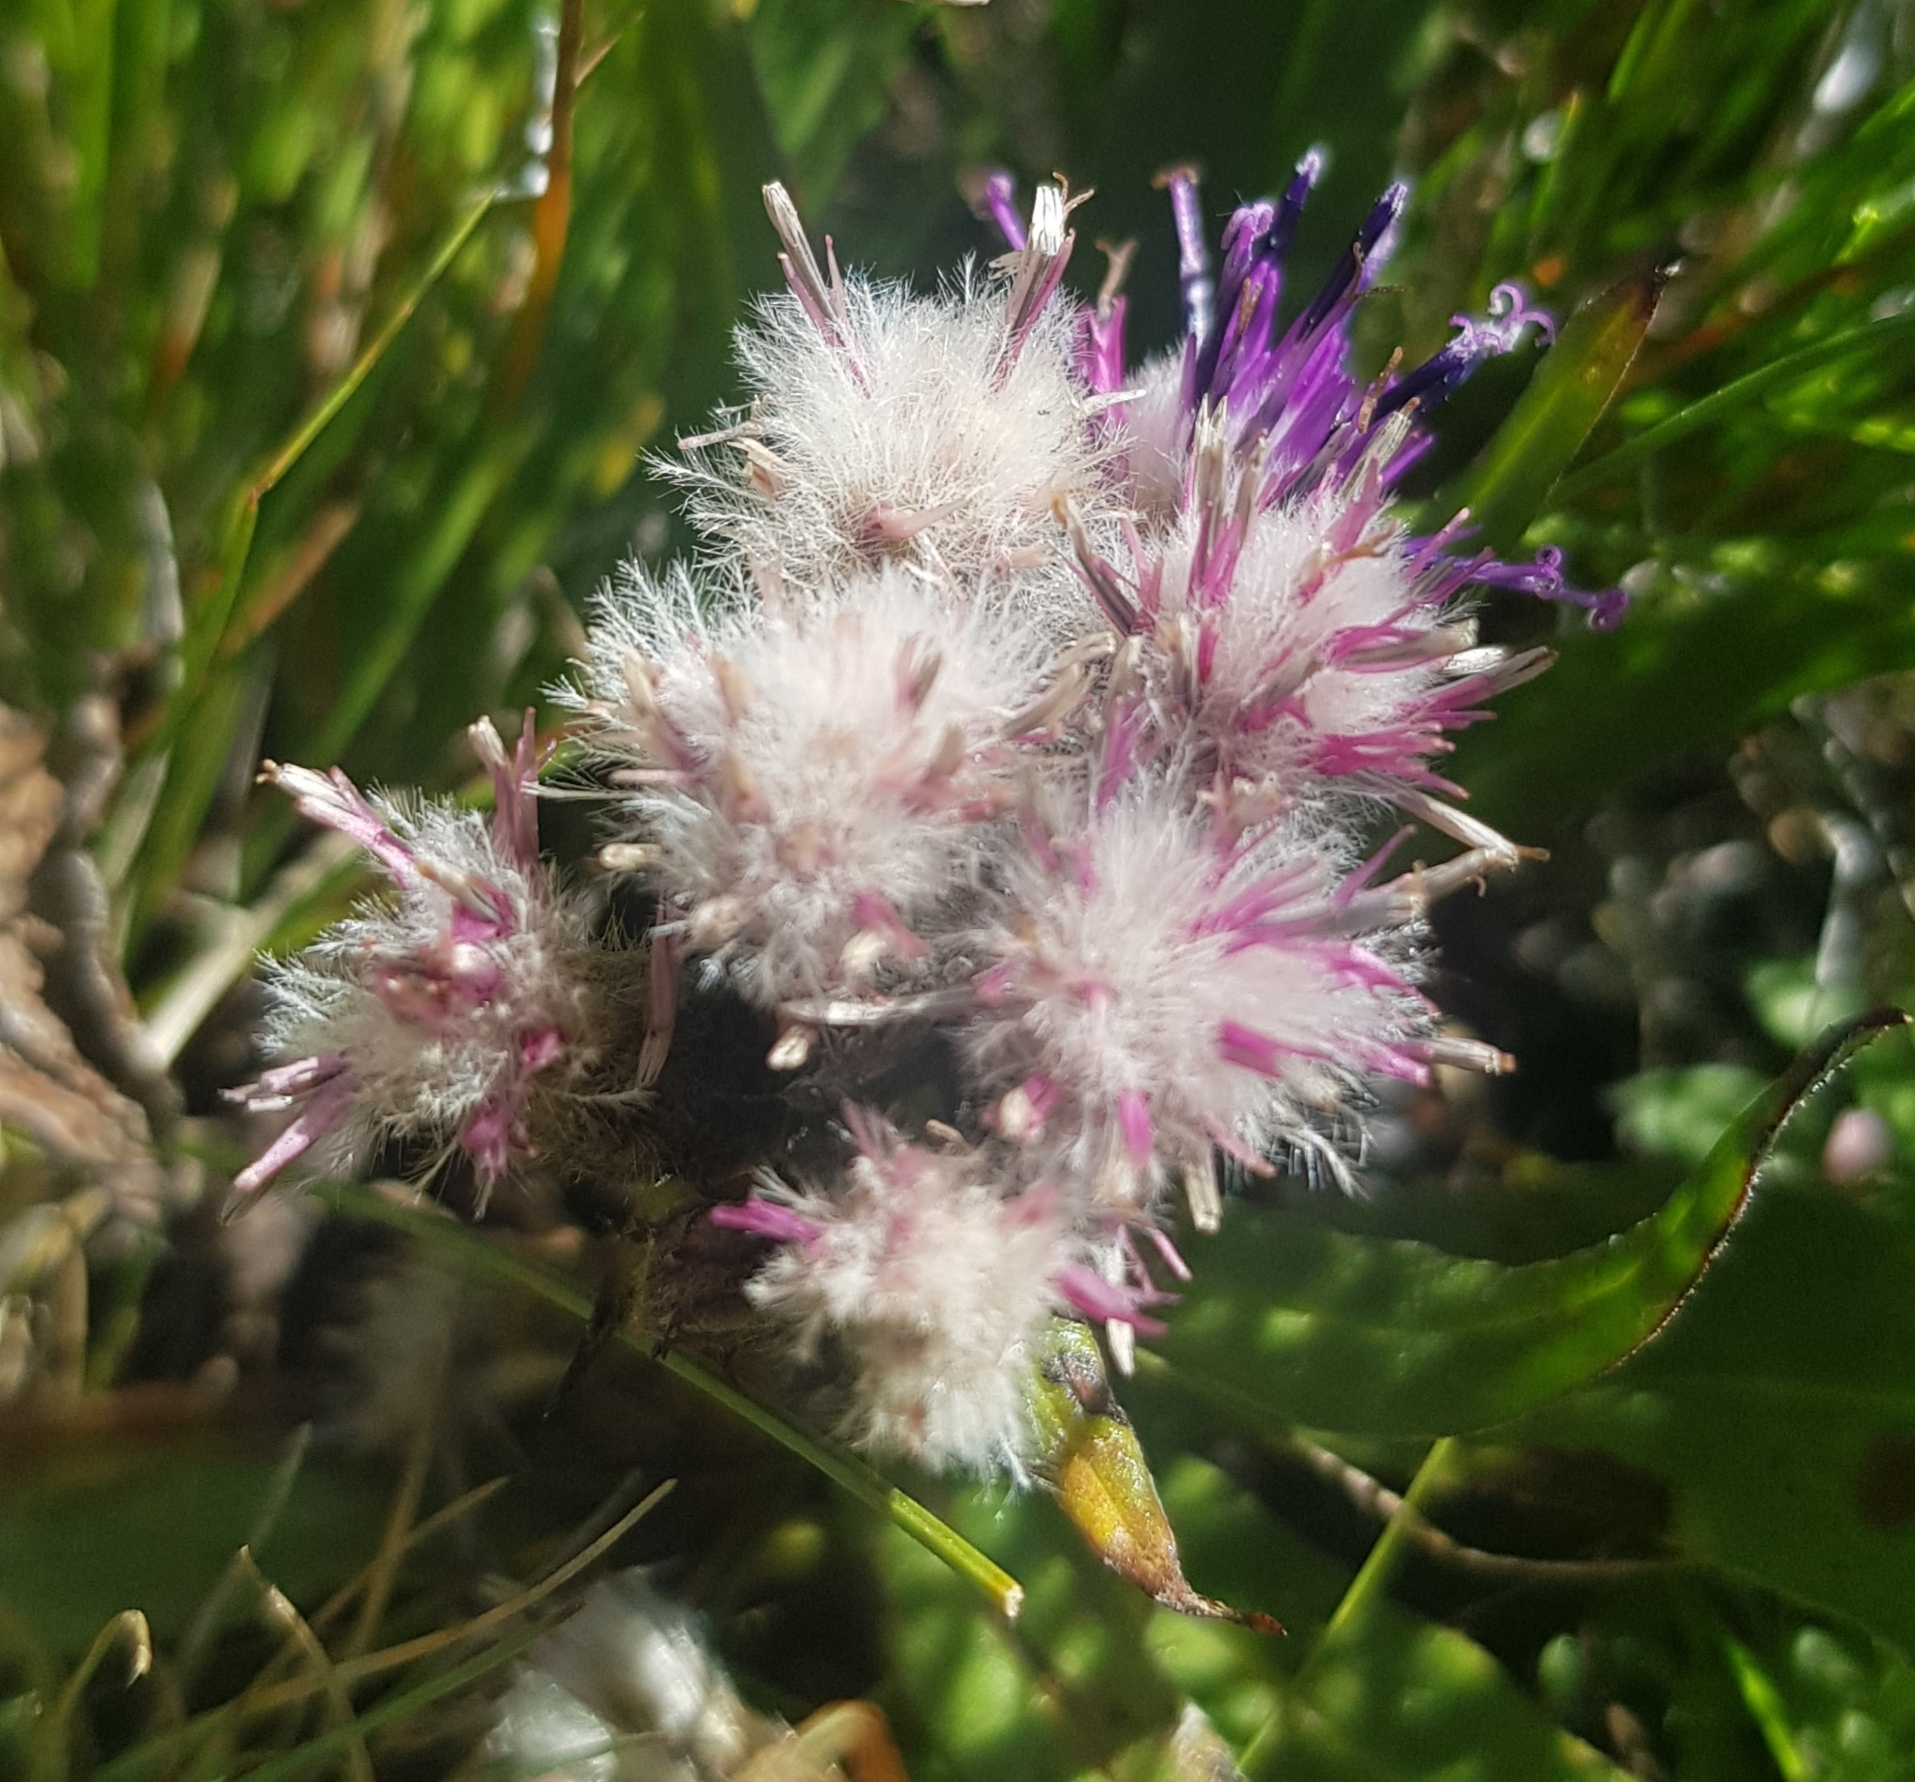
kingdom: Plantae
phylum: Tracheophyta
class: Magnoliopsida
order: Asterales
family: Asteraceae
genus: Saussurea
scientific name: Saussurea alpina
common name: Alpine saw-wort
